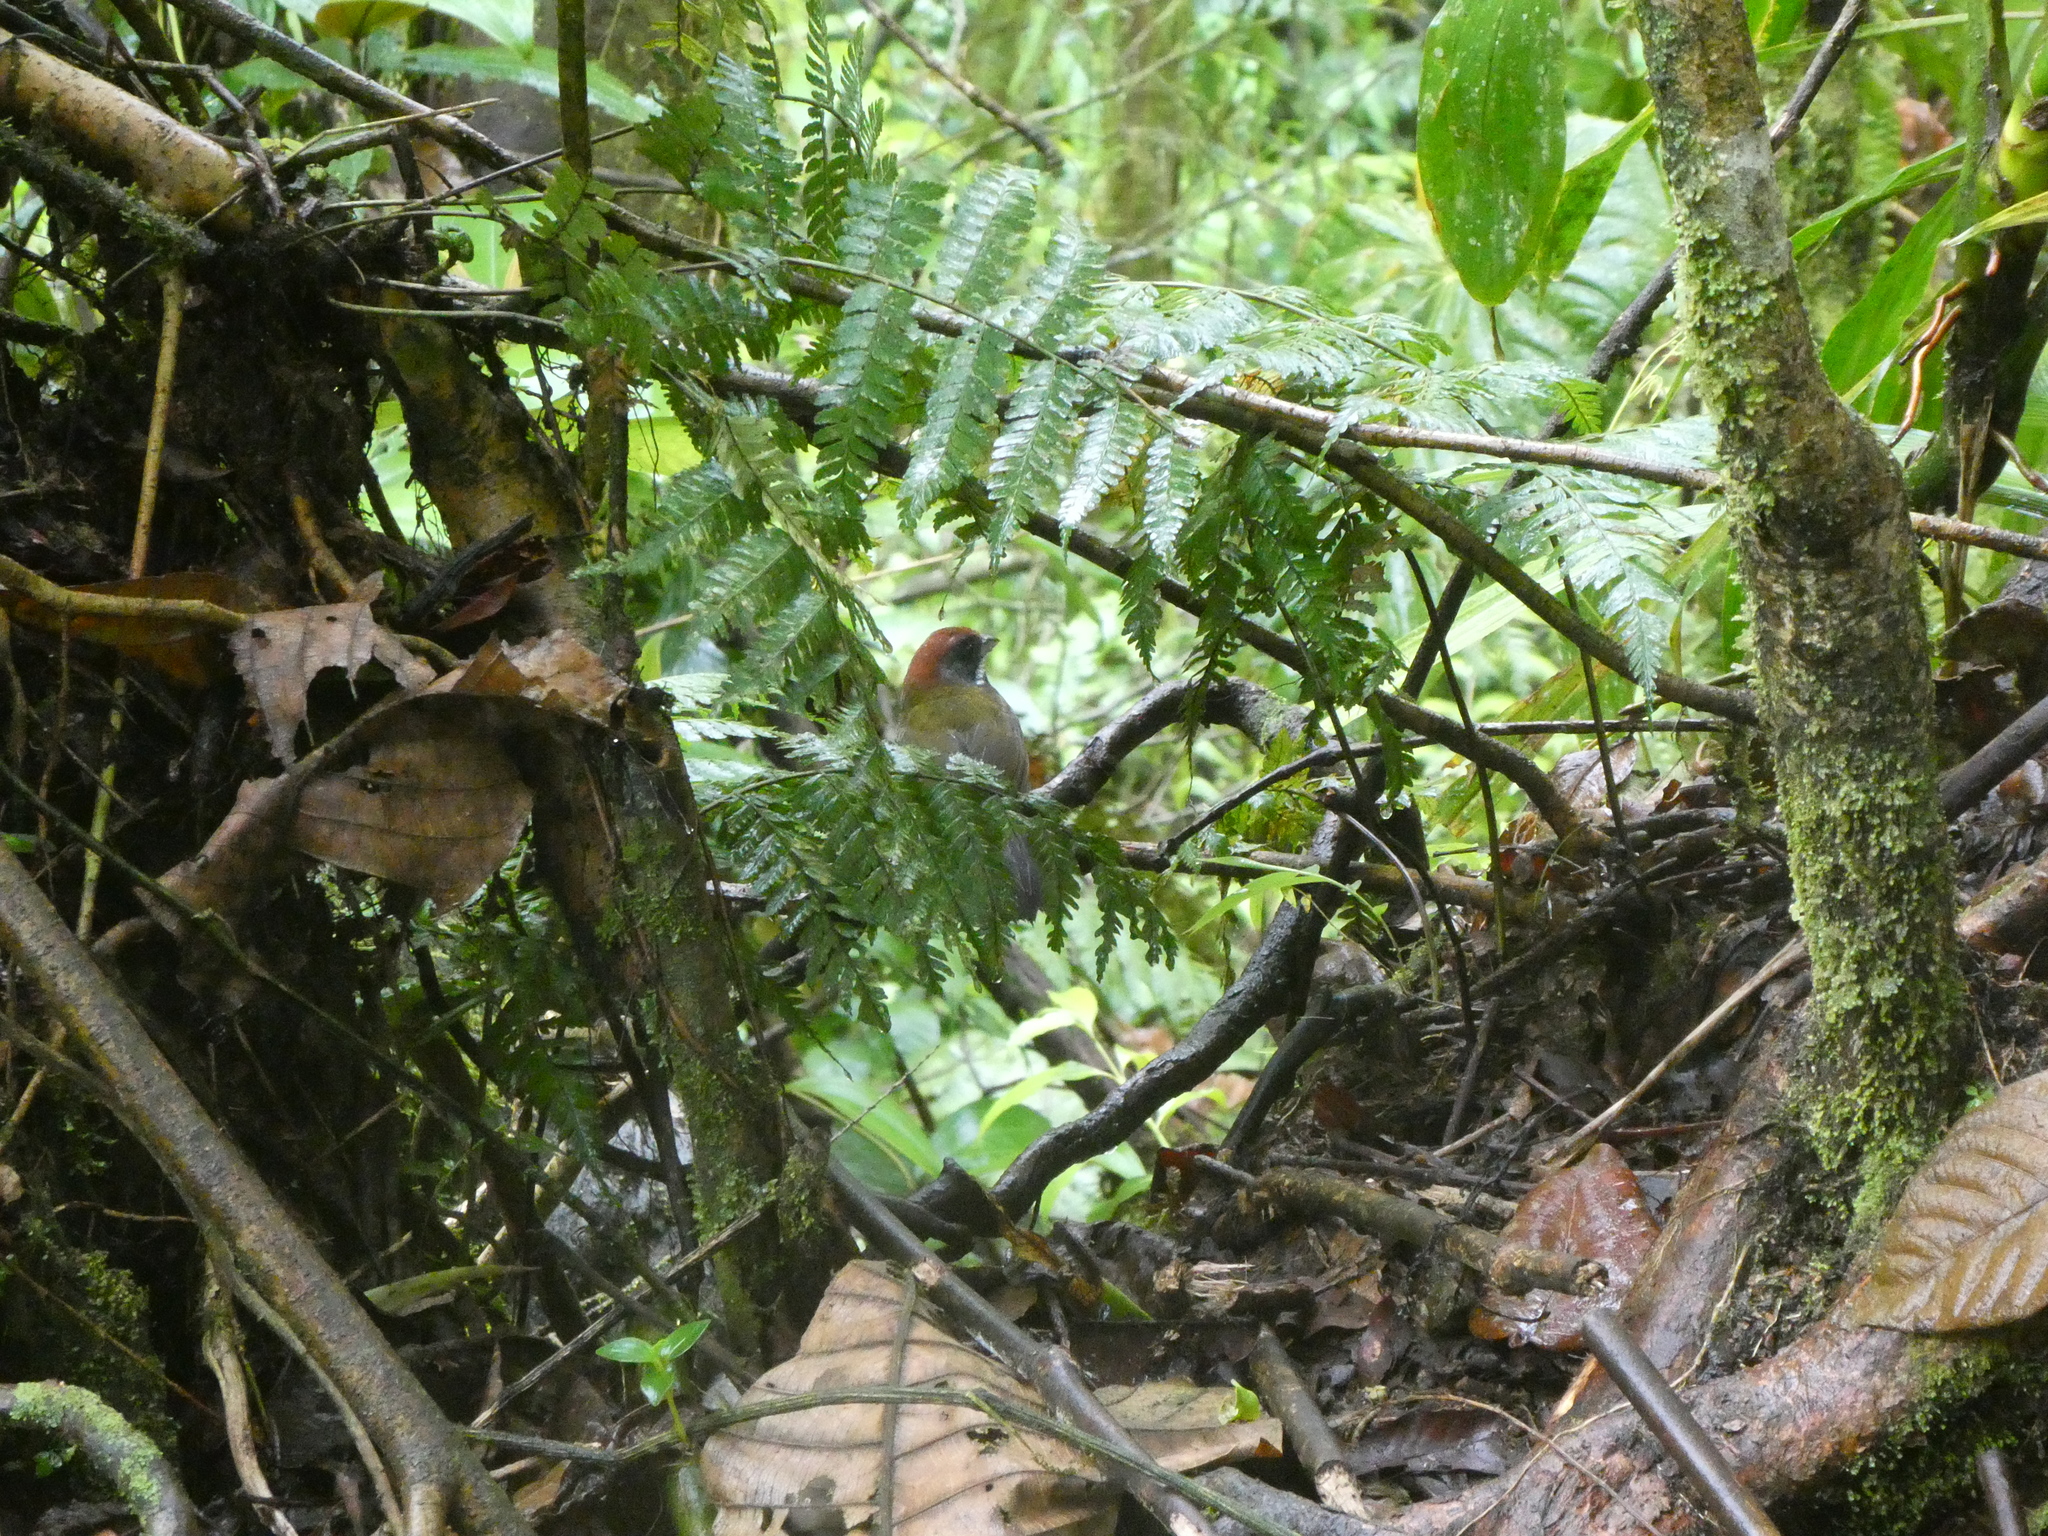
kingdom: Animalia
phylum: Chordata
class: Aves
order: Passeriformes
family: Passerellidae
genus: Arremon
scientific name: Arremon crassirostris
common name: Sooty-faced finch
